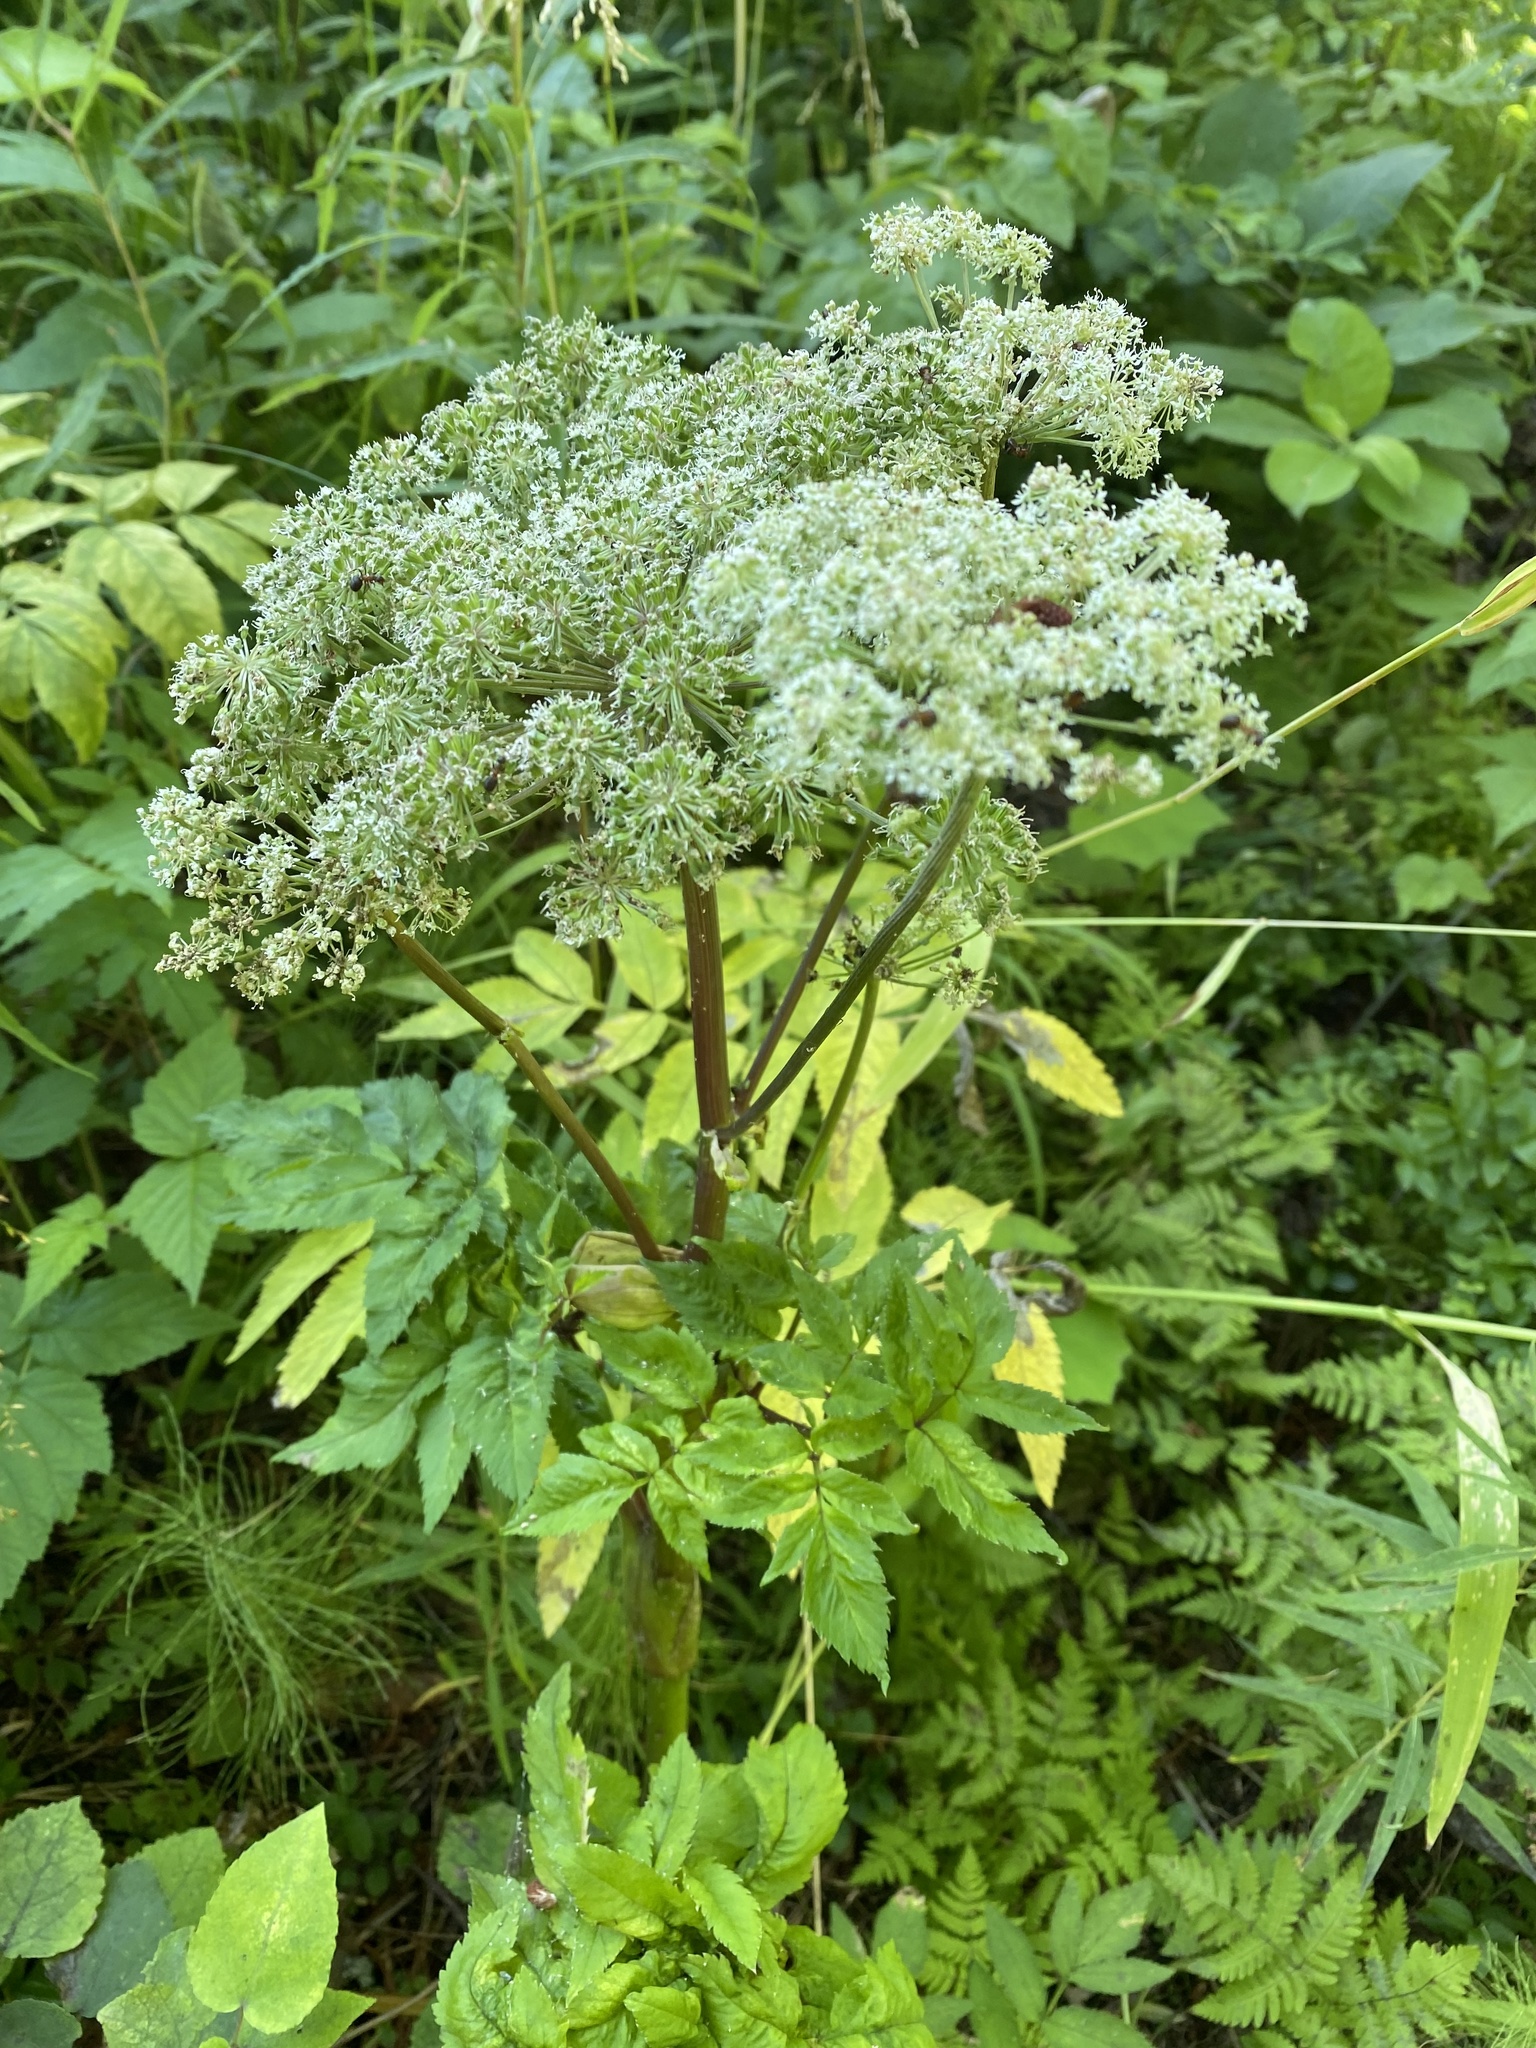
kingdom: Plantae
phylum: Tracheophyta
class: Magnoliopsida
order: Apiales
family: Apiaceae
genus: Angelica
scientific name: Angelica sylvestris
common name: Wild angelica
